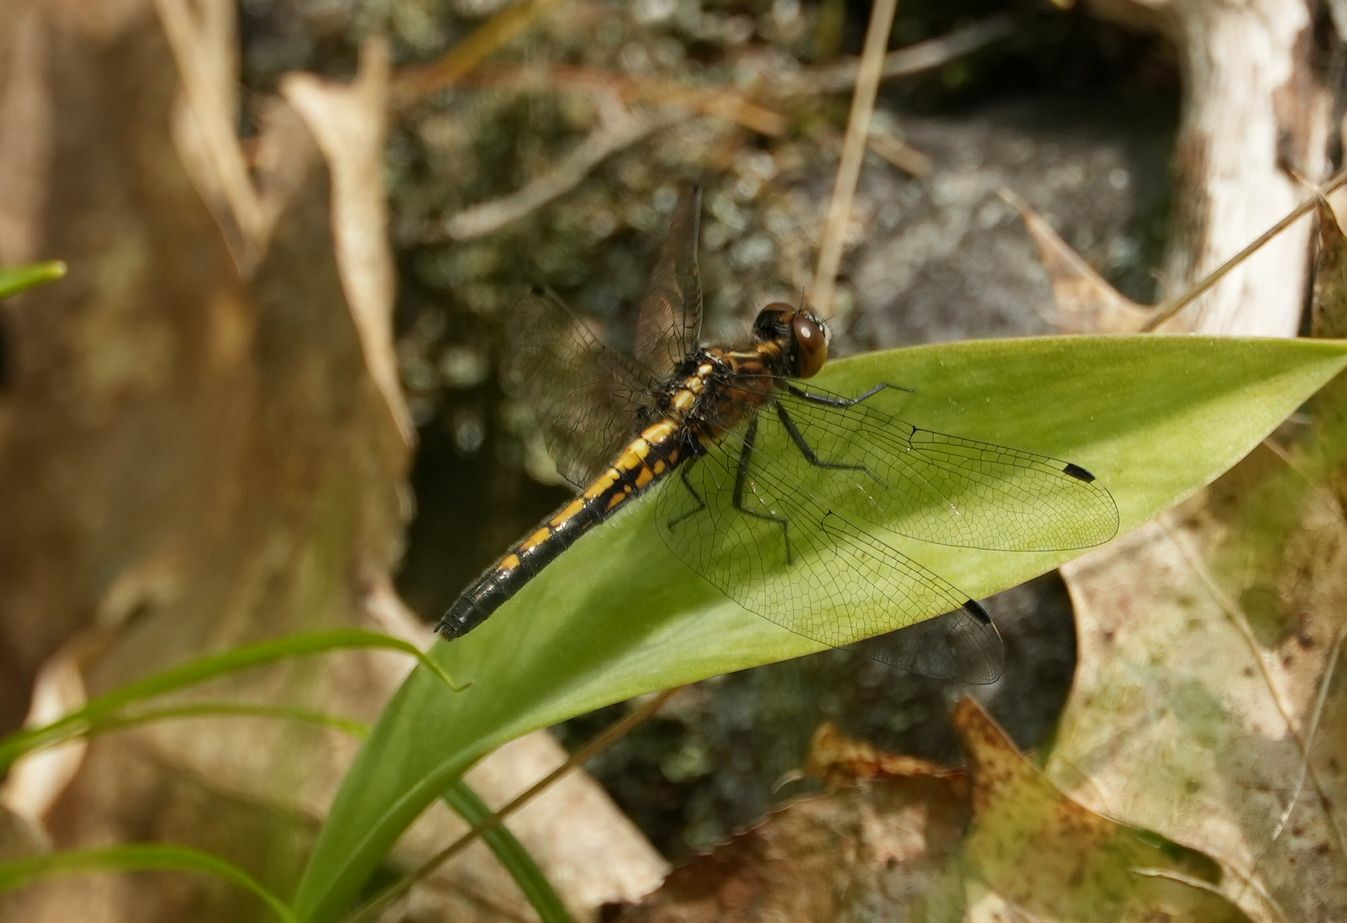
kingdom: Animalia
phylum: Arthropoda
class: Insecta
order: Odonata
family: Libellulidae
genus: Leucorrhinia
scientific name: Leucorrhinia intacta
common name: Dot-tailed whiteface
